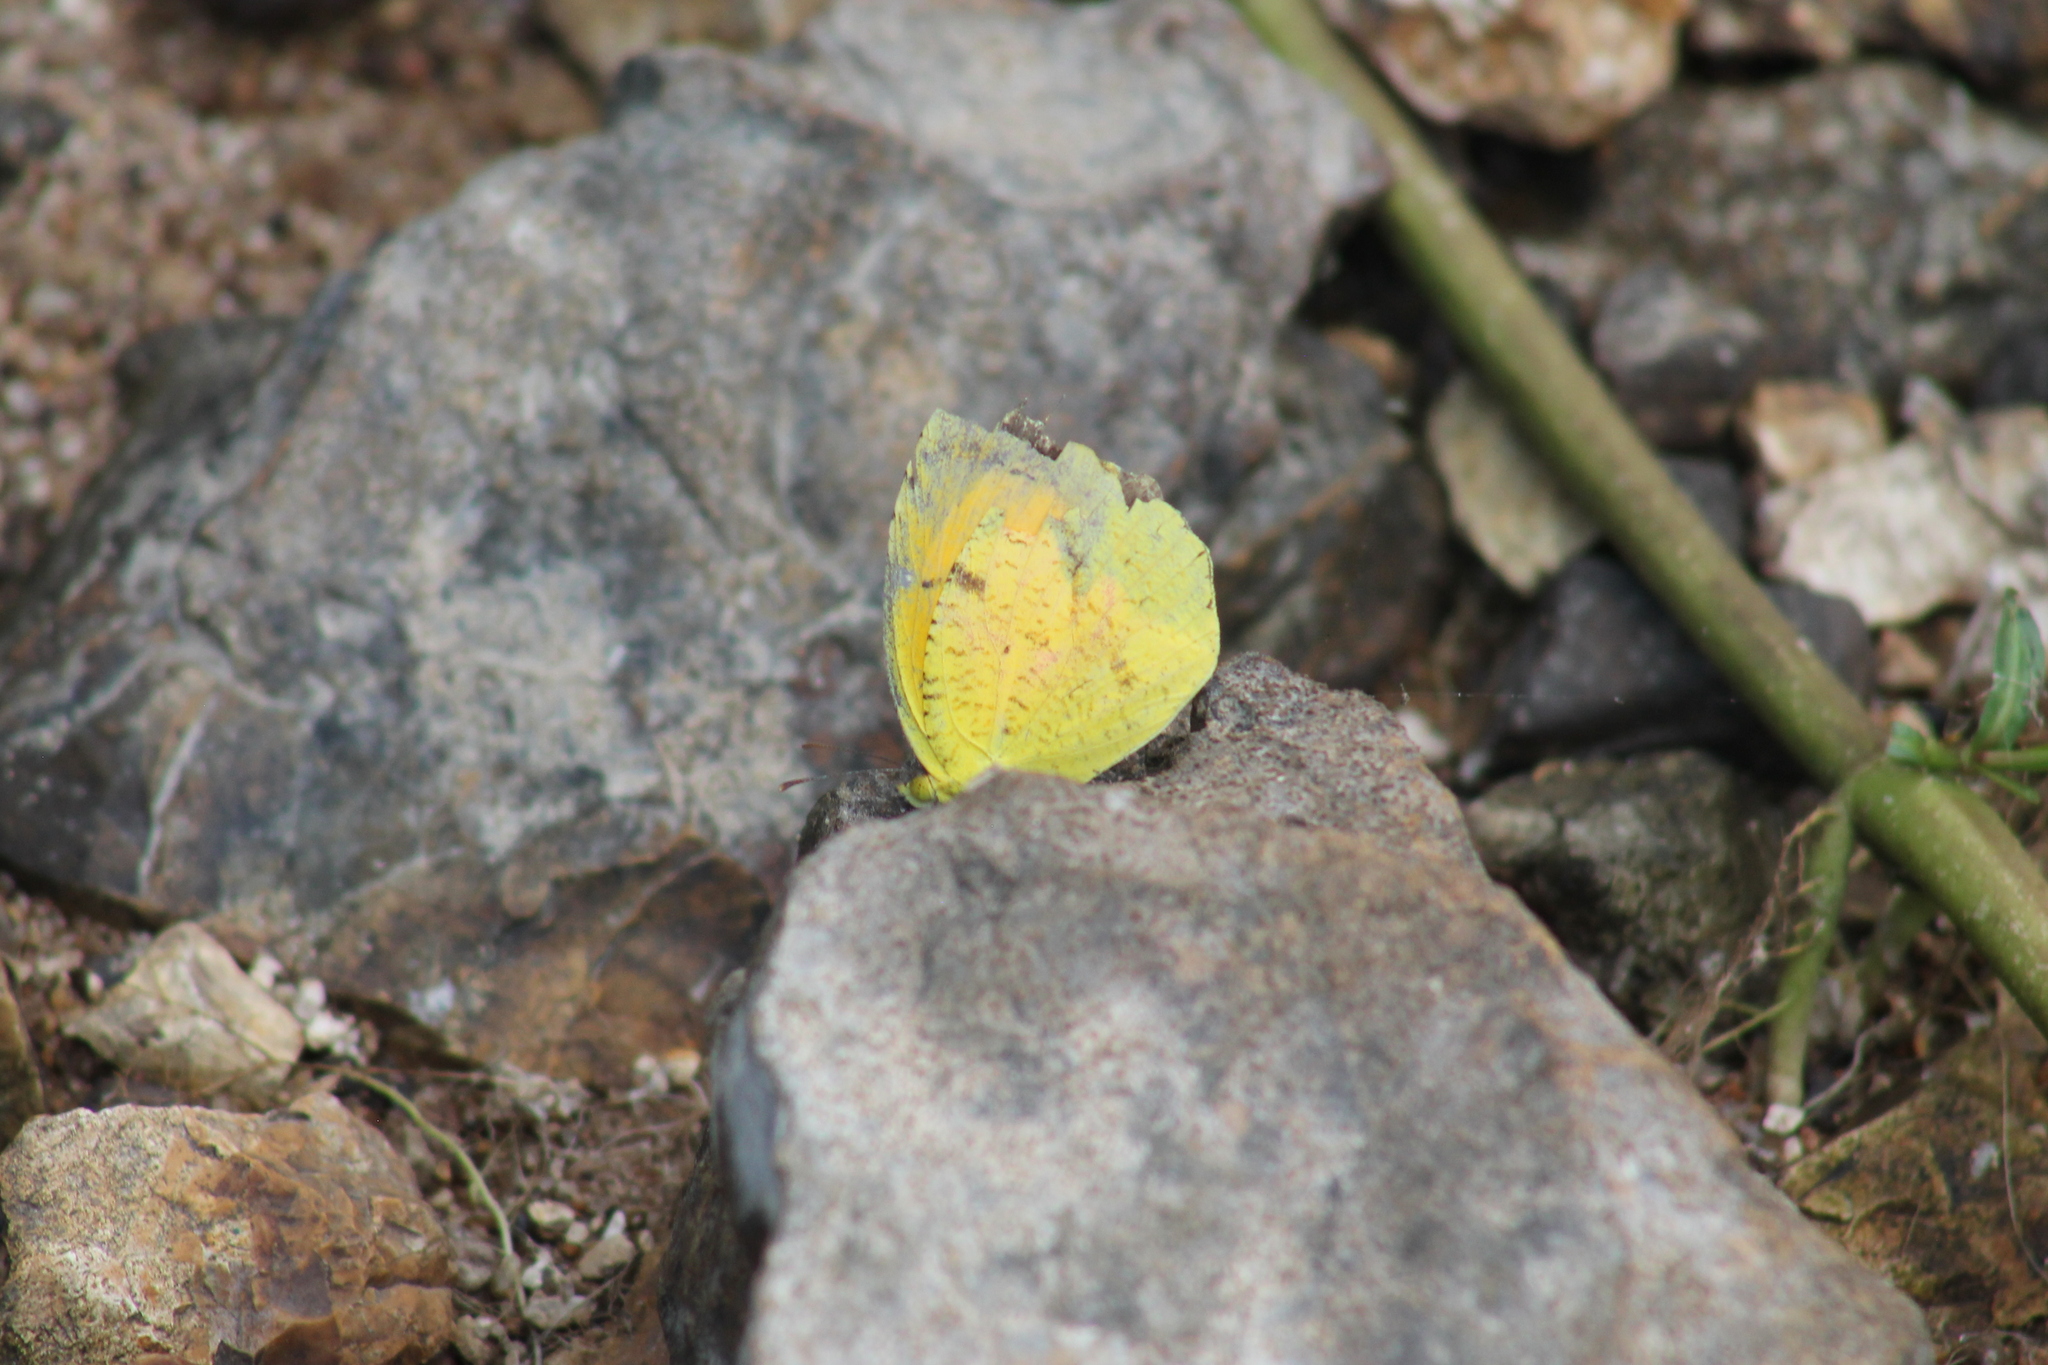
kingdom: Animalia
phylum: Arthropoda
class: Insecta
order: Lepidoptera
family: Pieridae
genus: Abaeis
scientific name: Abaeis nicippe
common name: Sleepy orange
